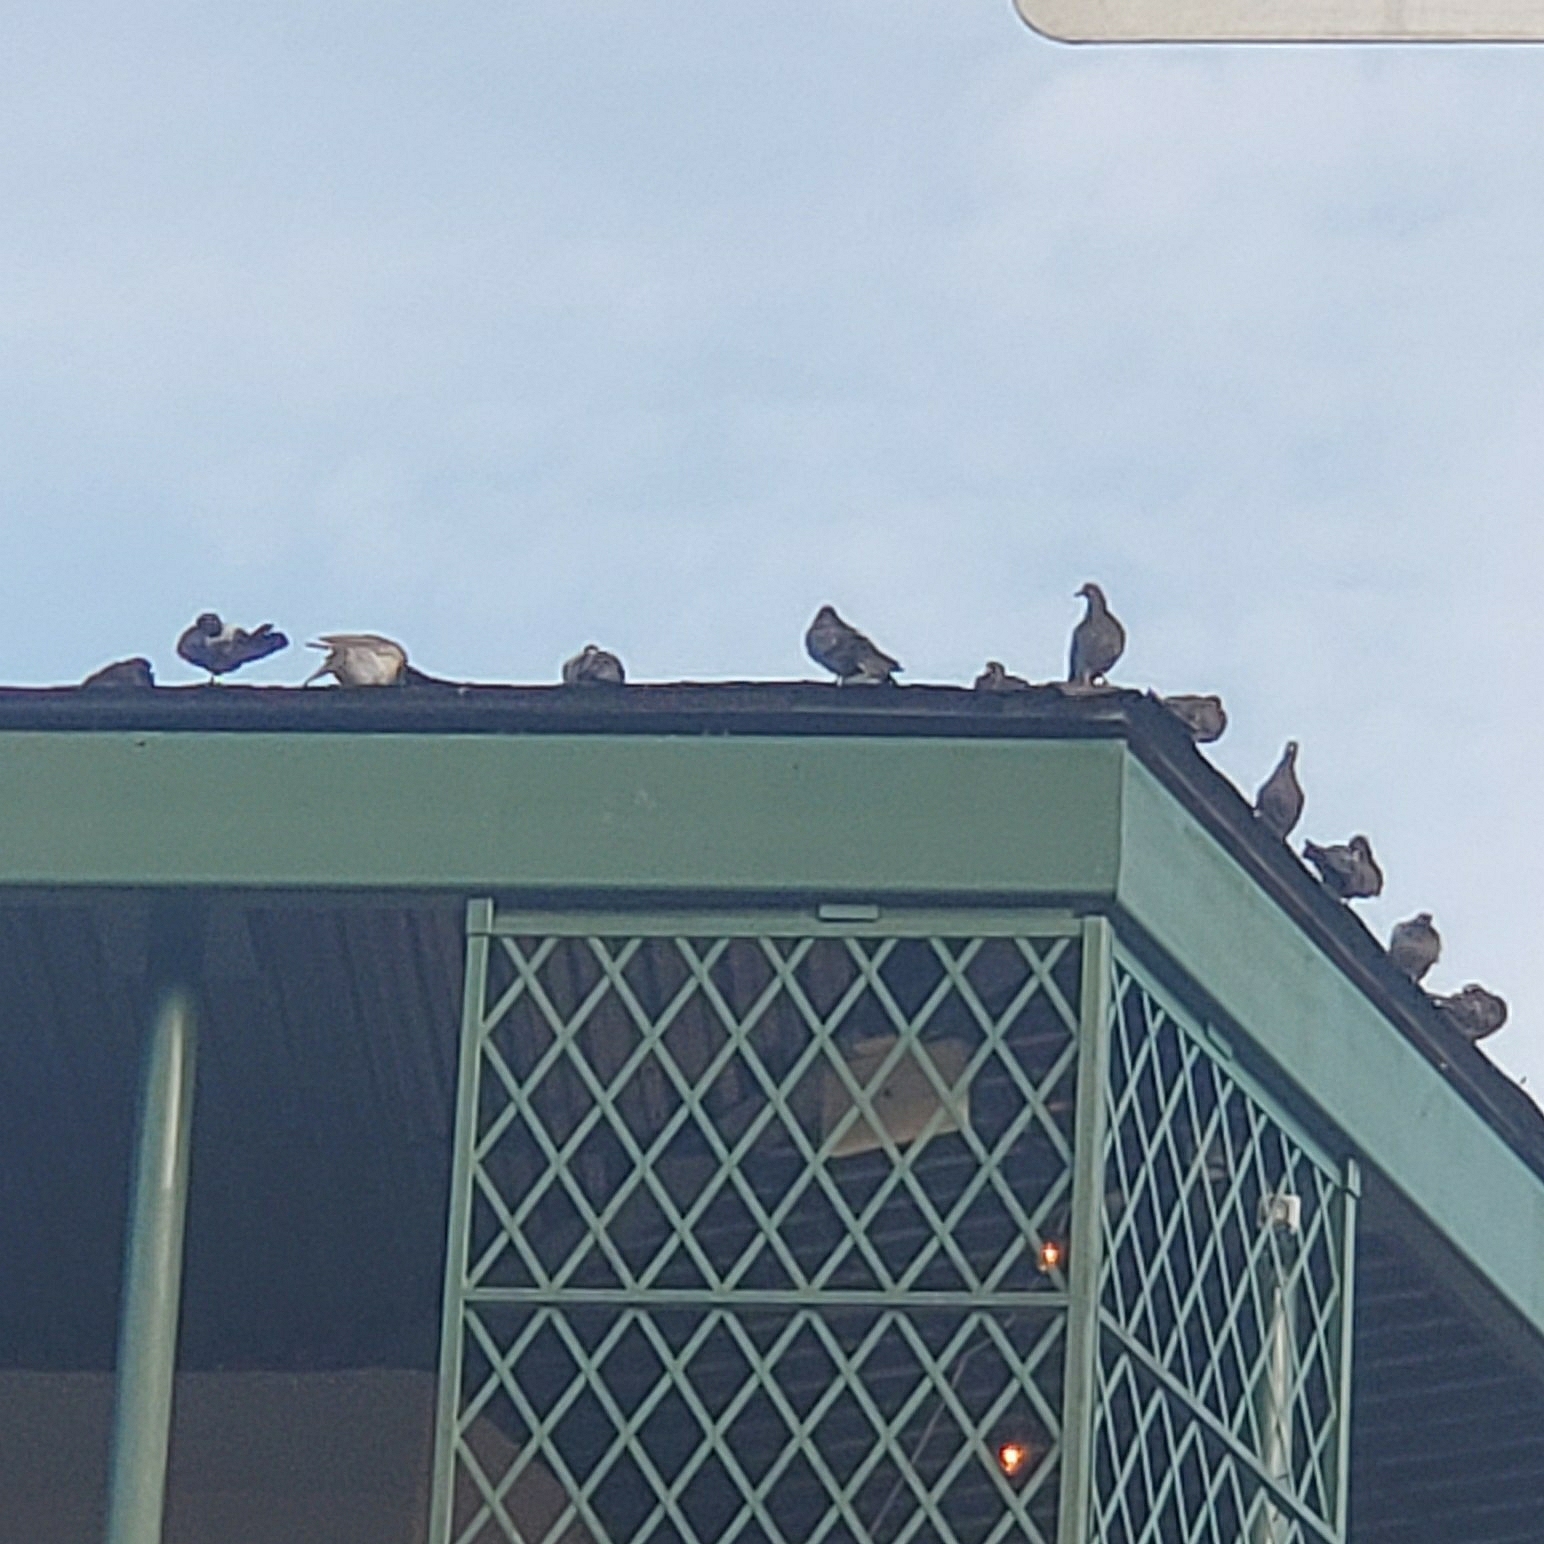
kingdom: Animalia
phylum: Chordata
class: Aves
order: Columbiformes
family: Columbidae
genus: Columba
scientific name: Columba livia
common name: Rock pigeon
